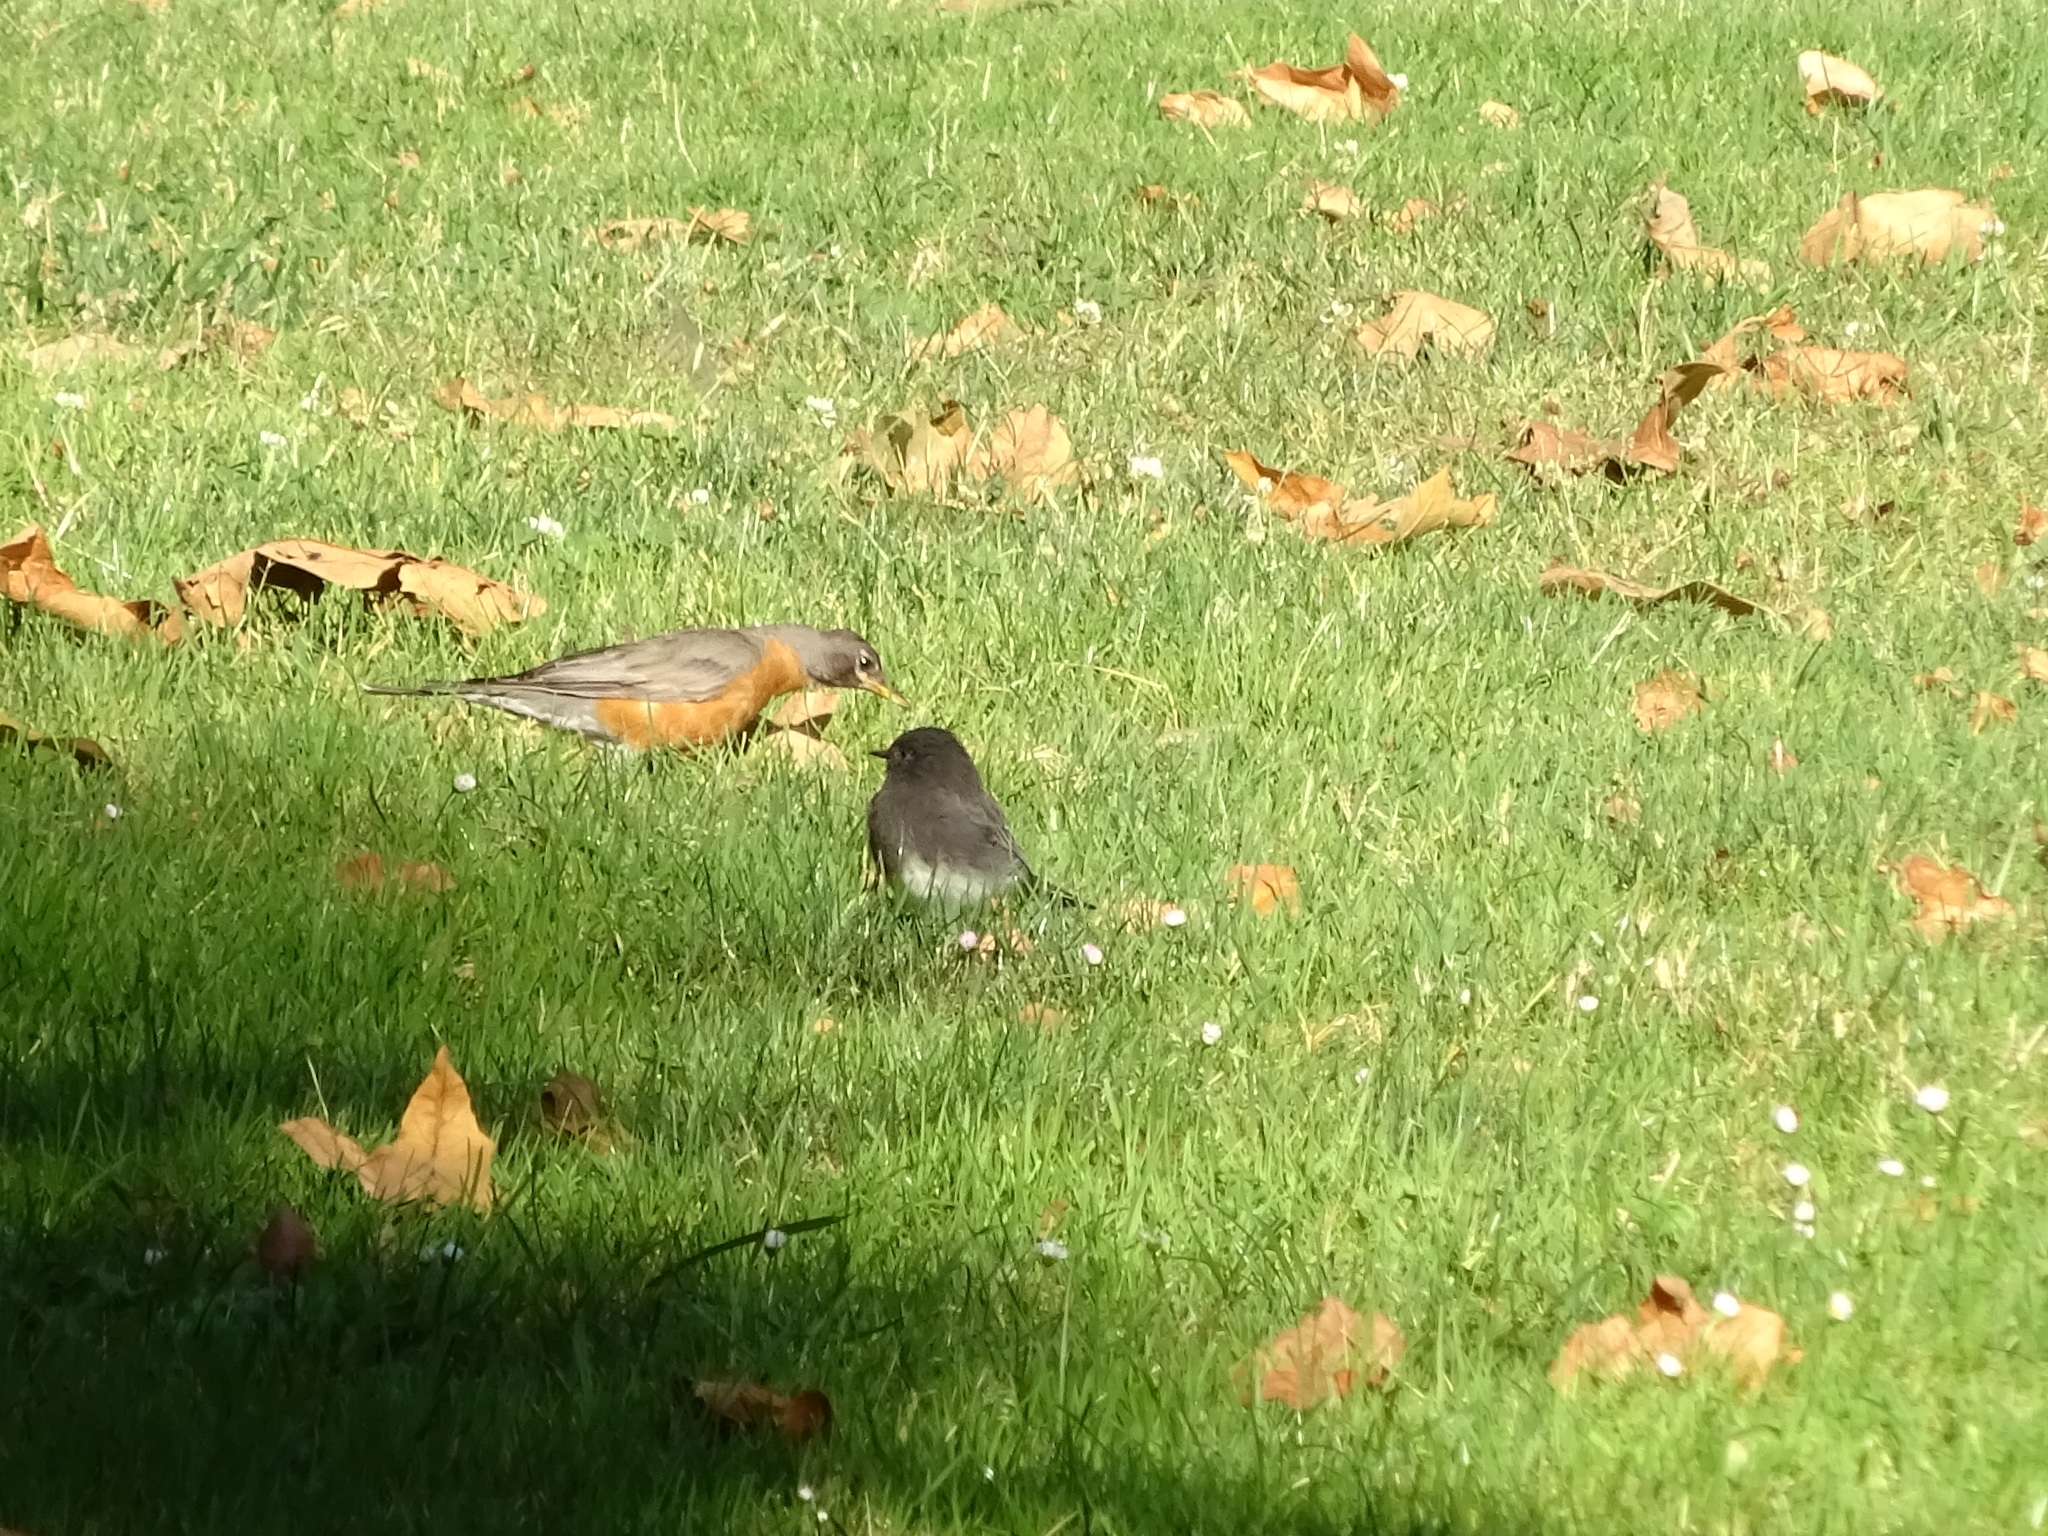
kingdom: Animalia
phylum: Chordata
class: Aves
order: Passeriformes
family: Turdidae
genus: Turdus
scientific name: Turdus migratorius
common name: American robin
